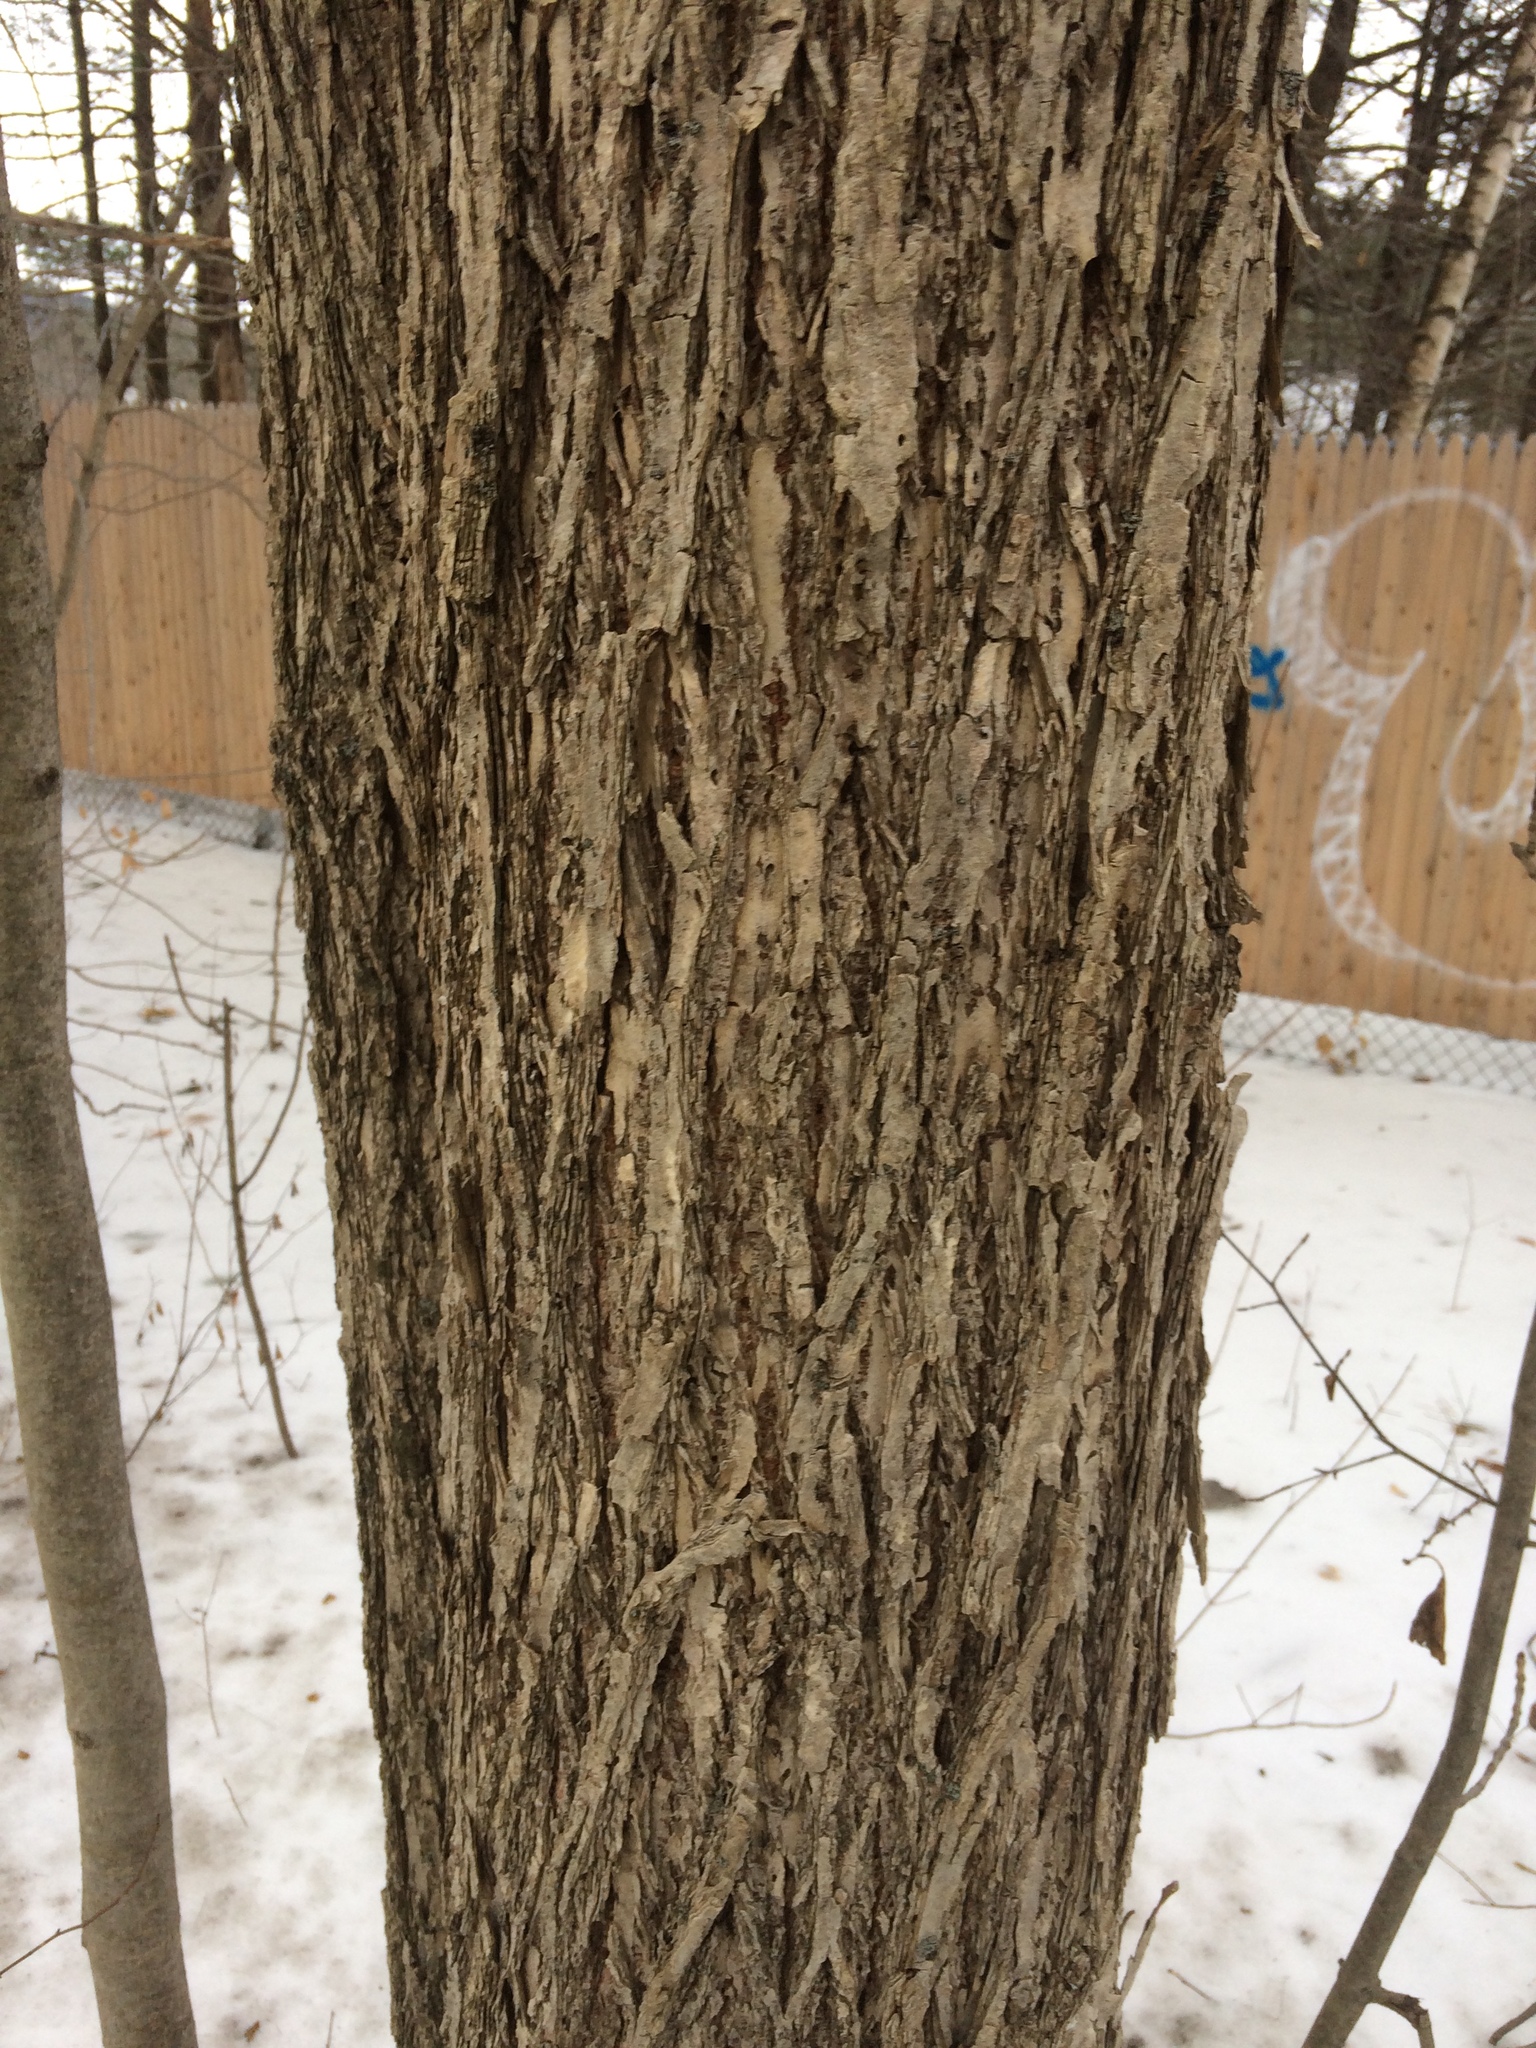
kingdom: Plantae
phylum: Tracheophyta
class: Magnoliopsida
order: Rosales
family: Ulmaceae
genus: Ulmus
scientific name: Ulmus americana
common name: American elm
